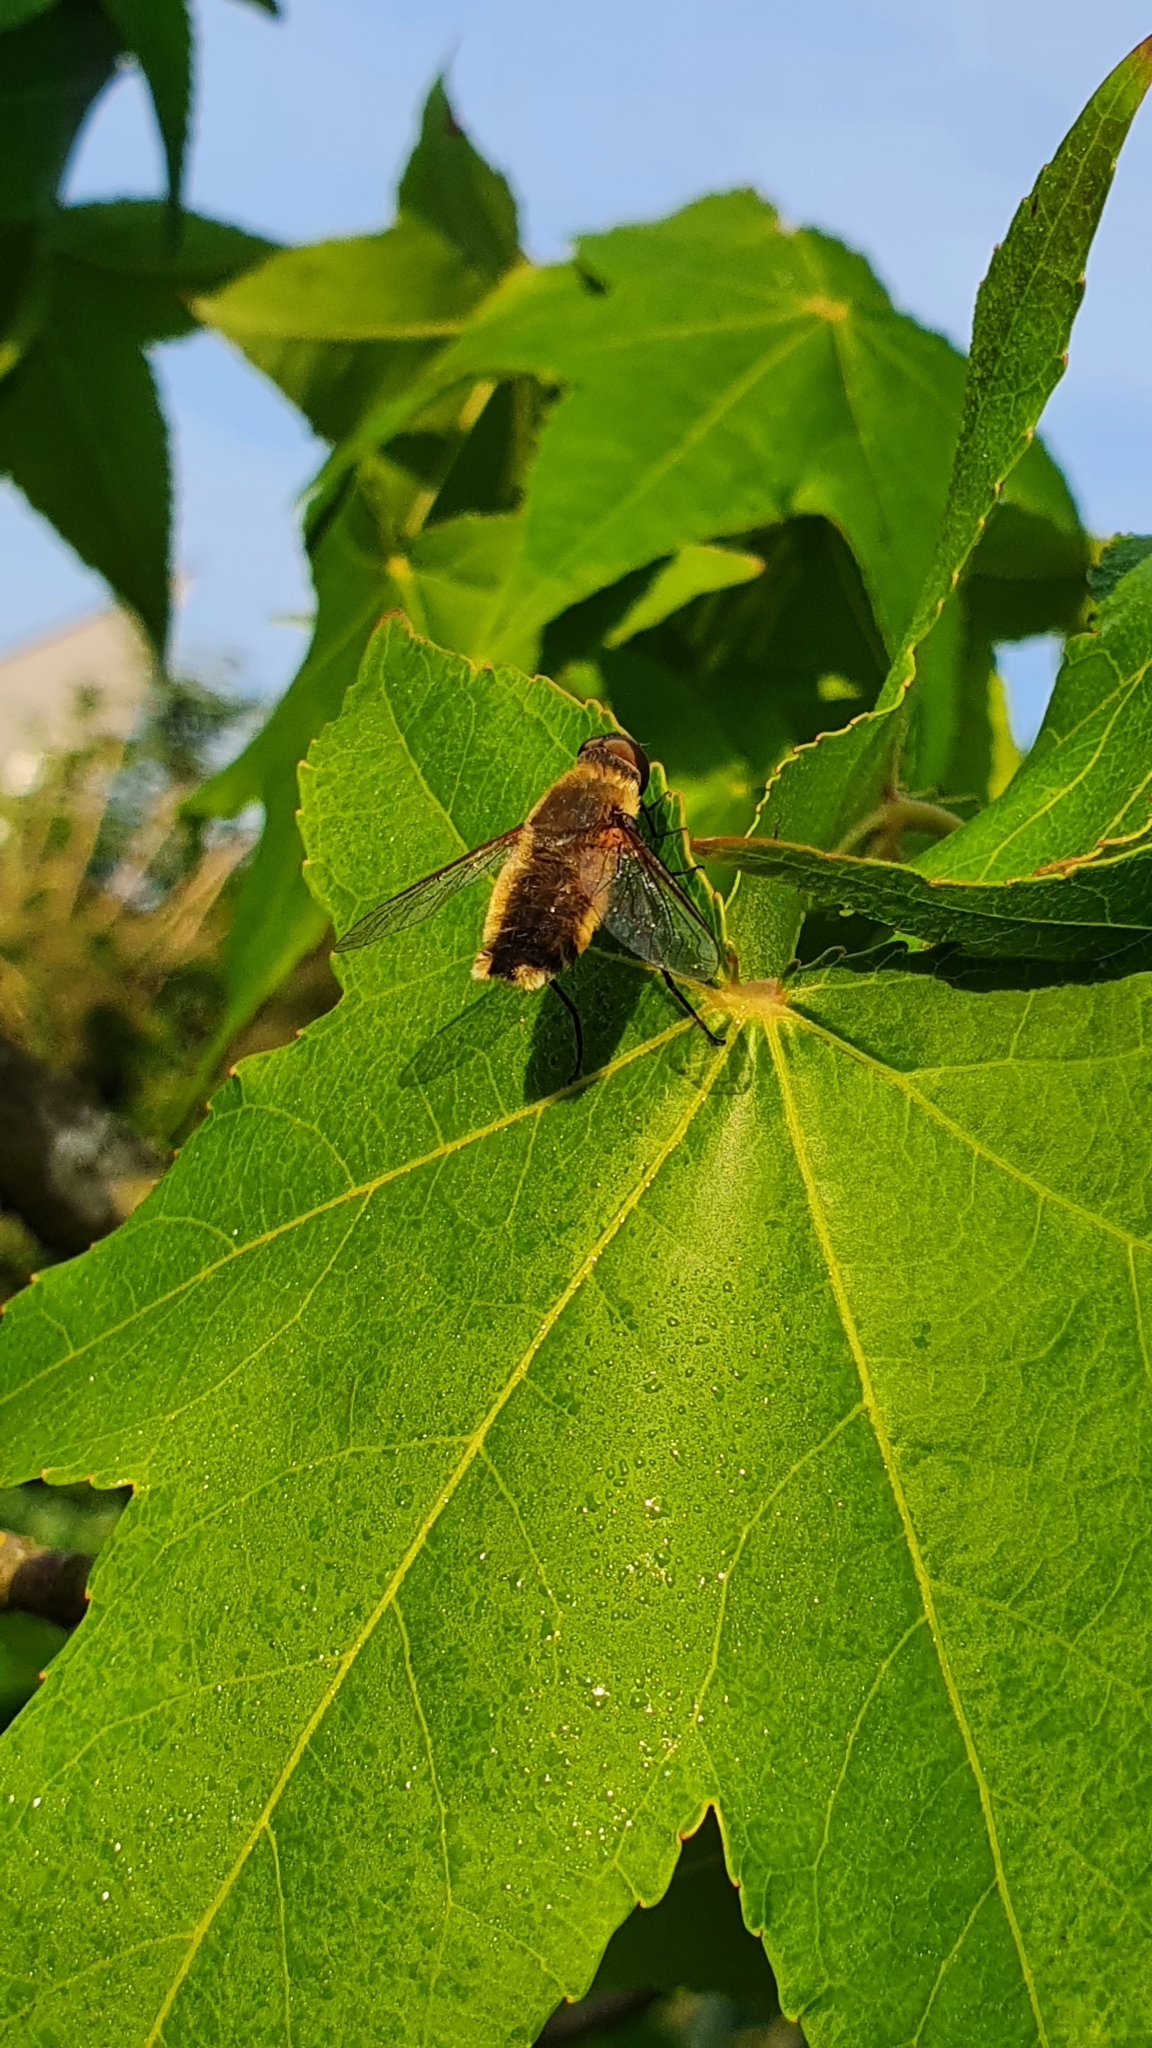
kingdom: Animalia
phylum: Arthropoda
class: Insecta
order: Diptera
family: Bombyliidae
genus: Villa
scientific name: Villa hottentotta
